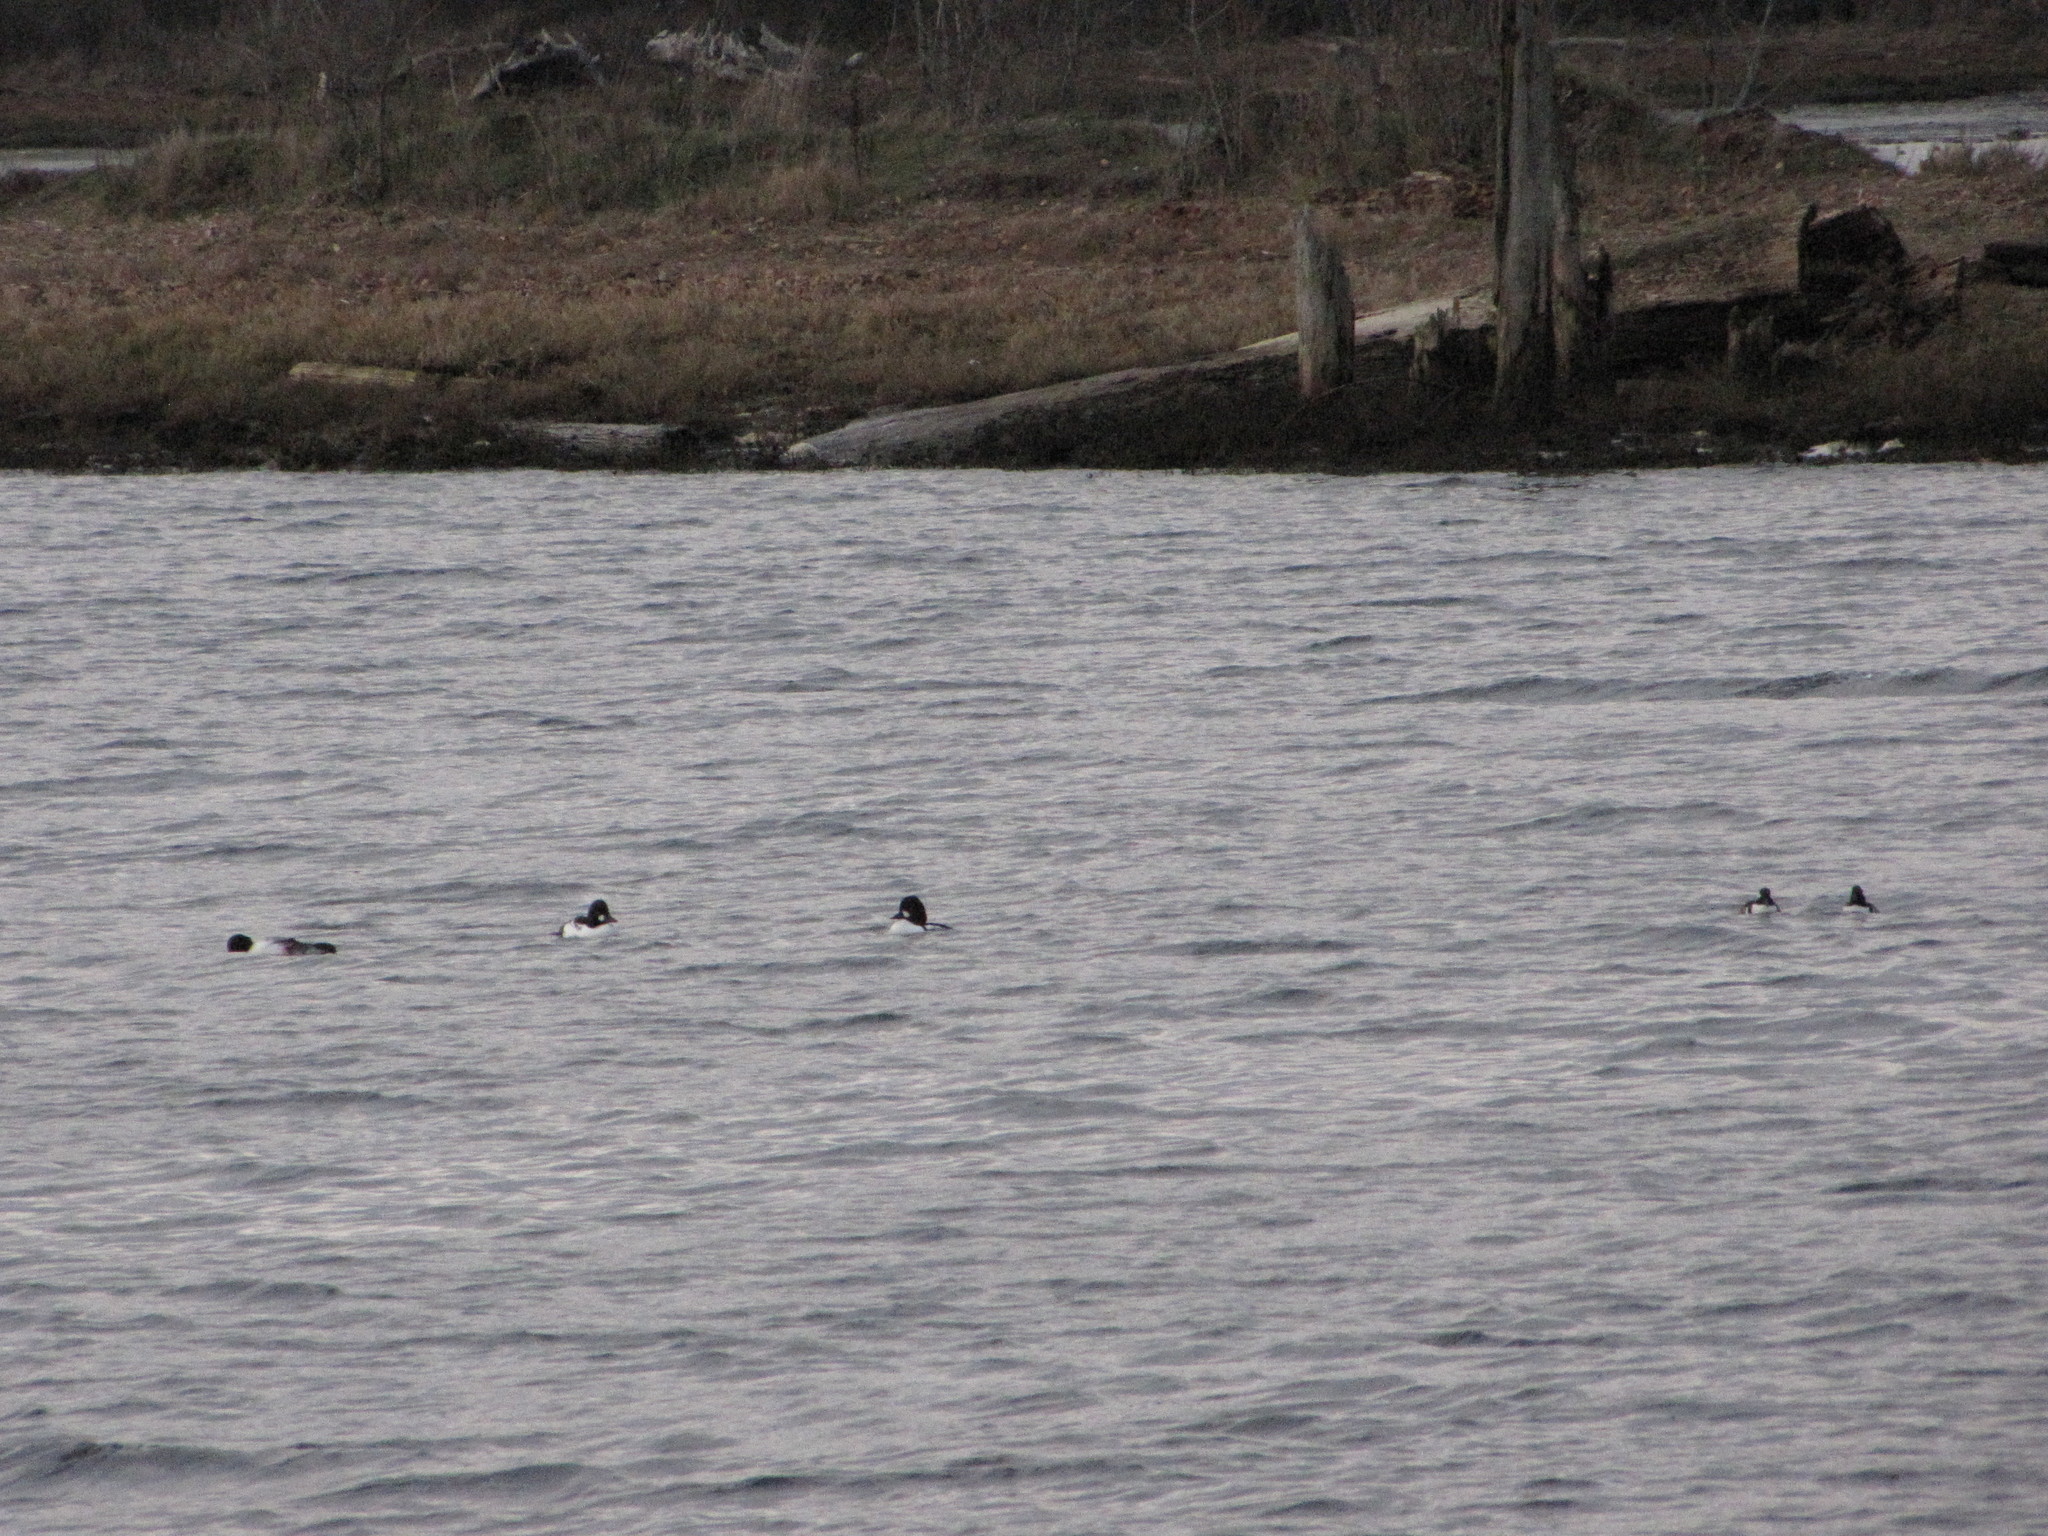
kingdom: Animalia
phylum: Chordata
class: Aves
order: Anseriformes
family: Anatidae
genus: Bucephala
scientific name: Bucephala clangula
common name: Common goldeneye
